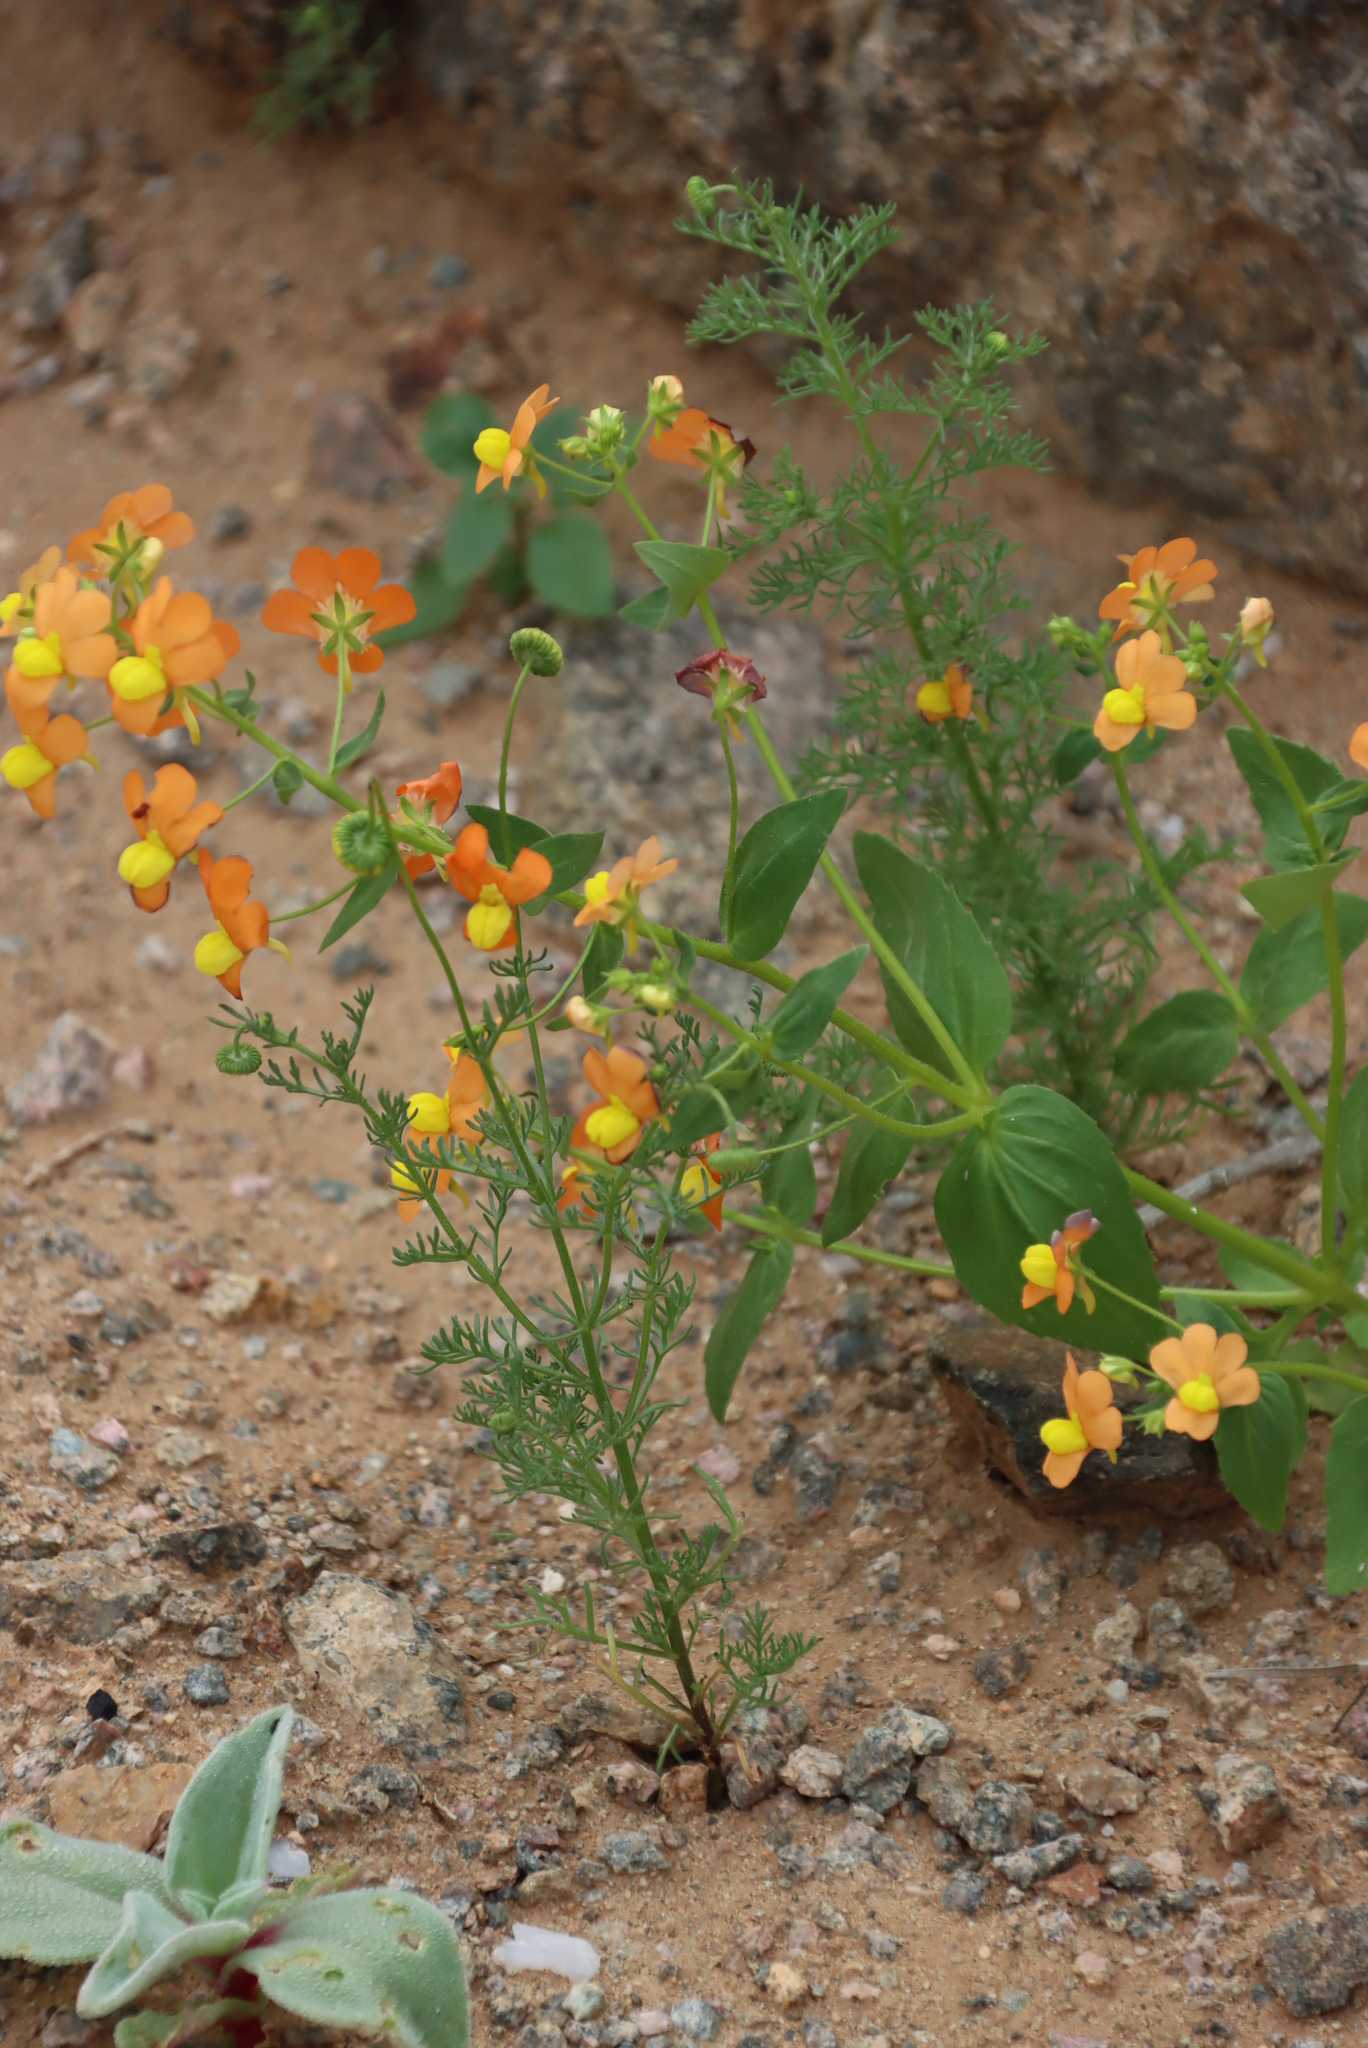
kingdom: Plantae
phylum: Tracheophyta
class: Magnoliopsida
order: Lamiales
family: Scrophulariaceae
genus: Nemesia
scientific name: Nemesia williamsonii
